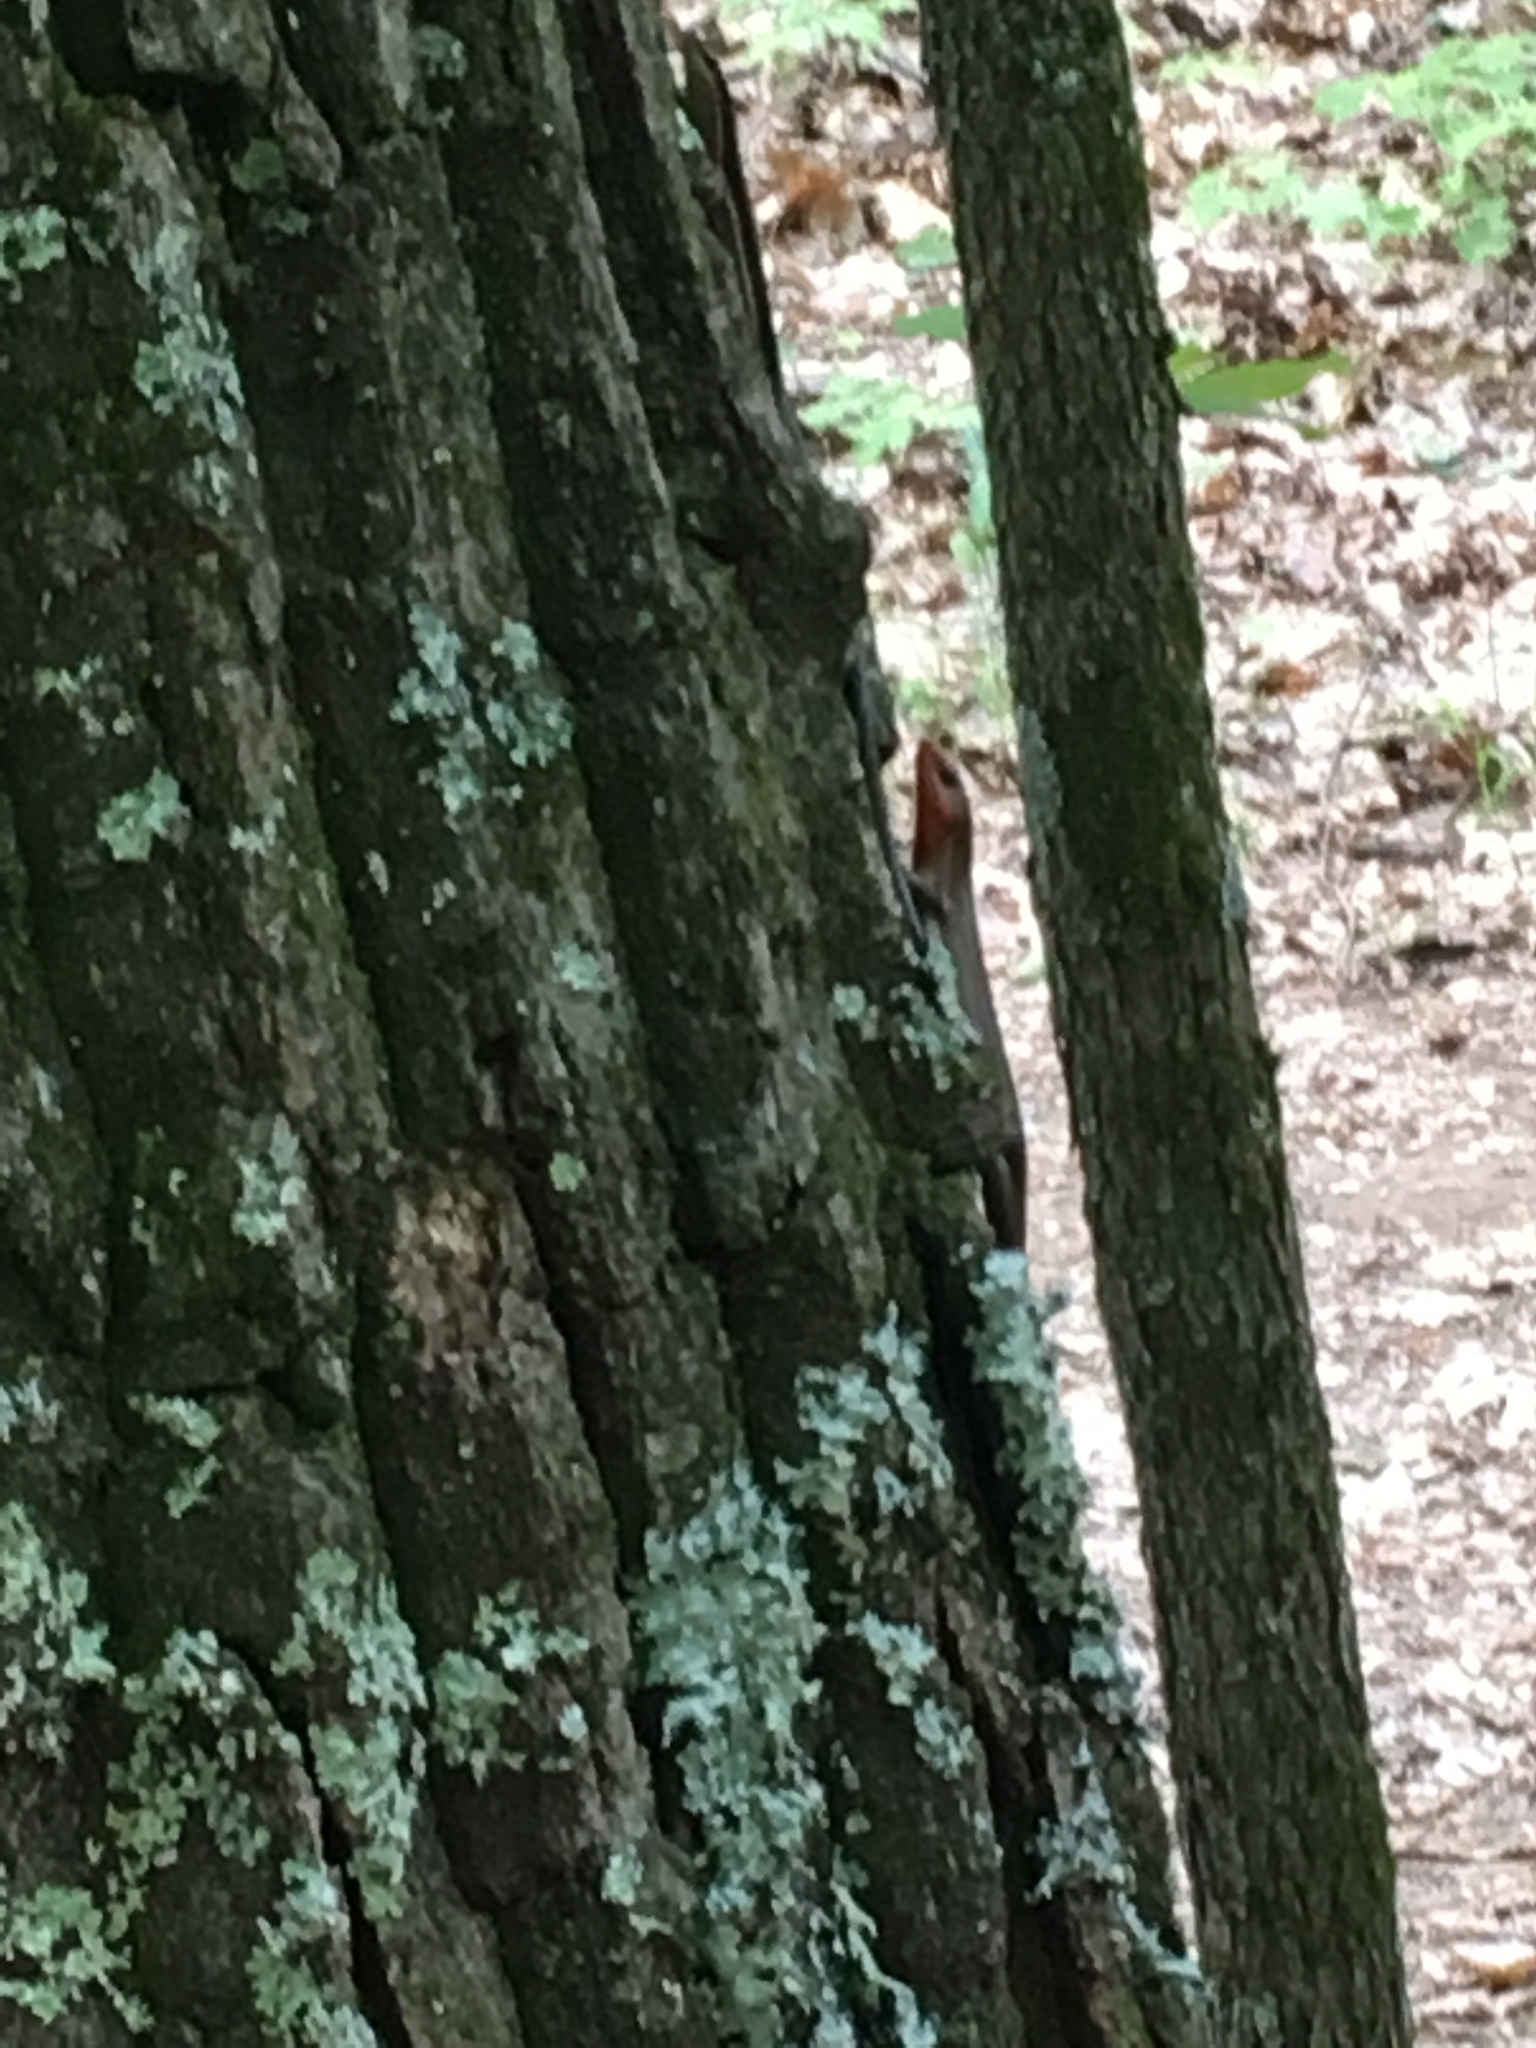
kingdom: Animalia
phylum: Chordata
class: Squamata
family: Scincidae
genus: Plestiodon
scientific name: Plestiodon fasciatus
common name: Five-lined skink
